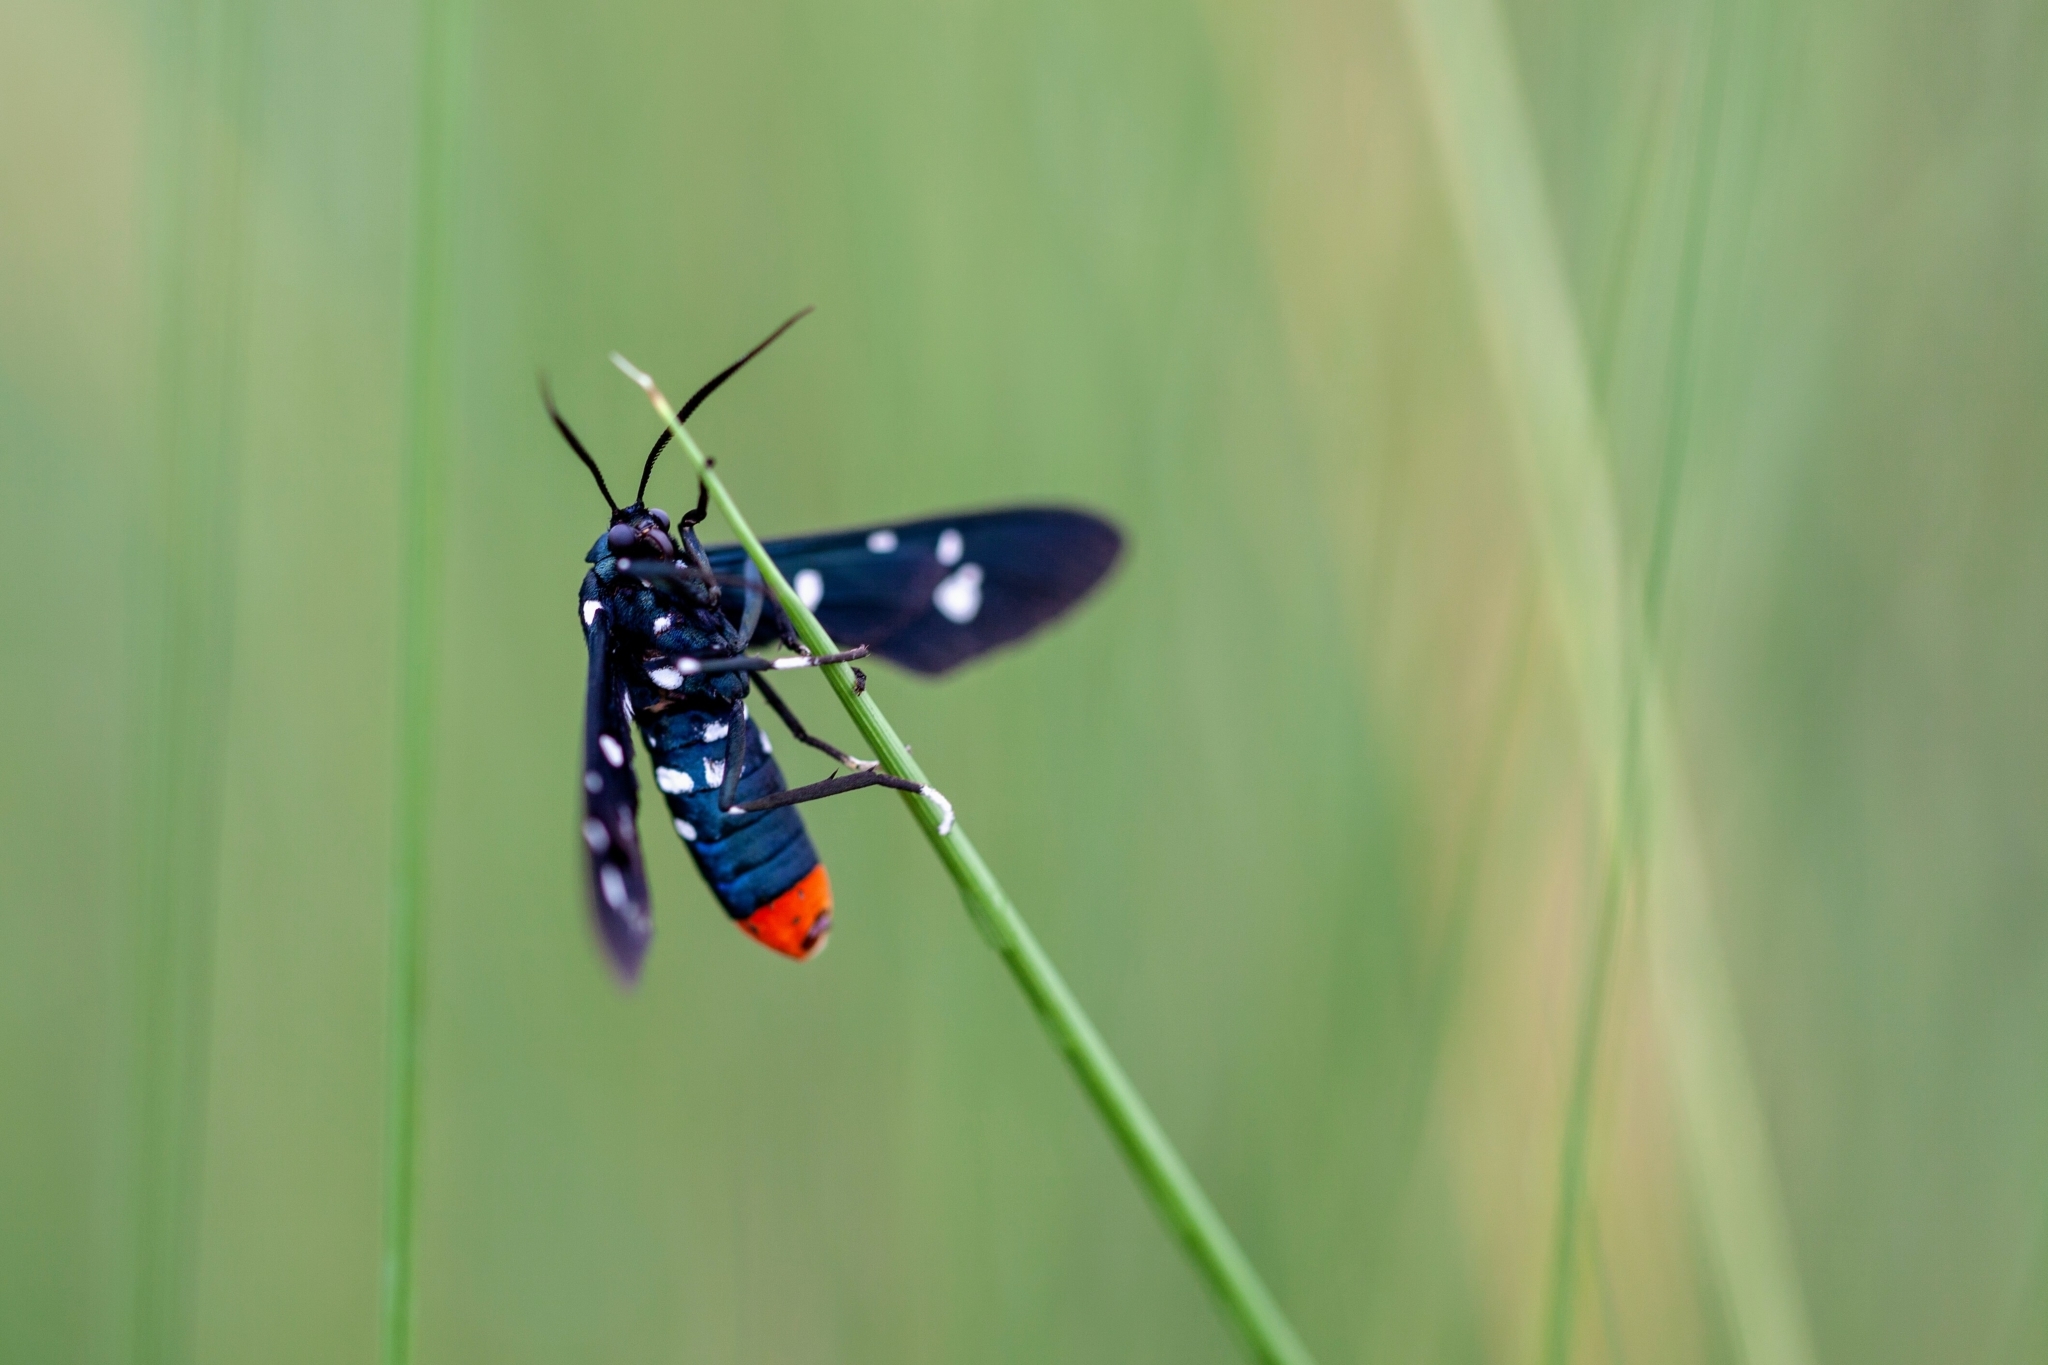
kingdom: Animalia
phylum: Arthropoda
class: Insecta
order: Lepidoptera
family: Erebidae
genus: Syntomeida
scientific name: Syntomeida epilais
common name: Polka-dot wasp moth
